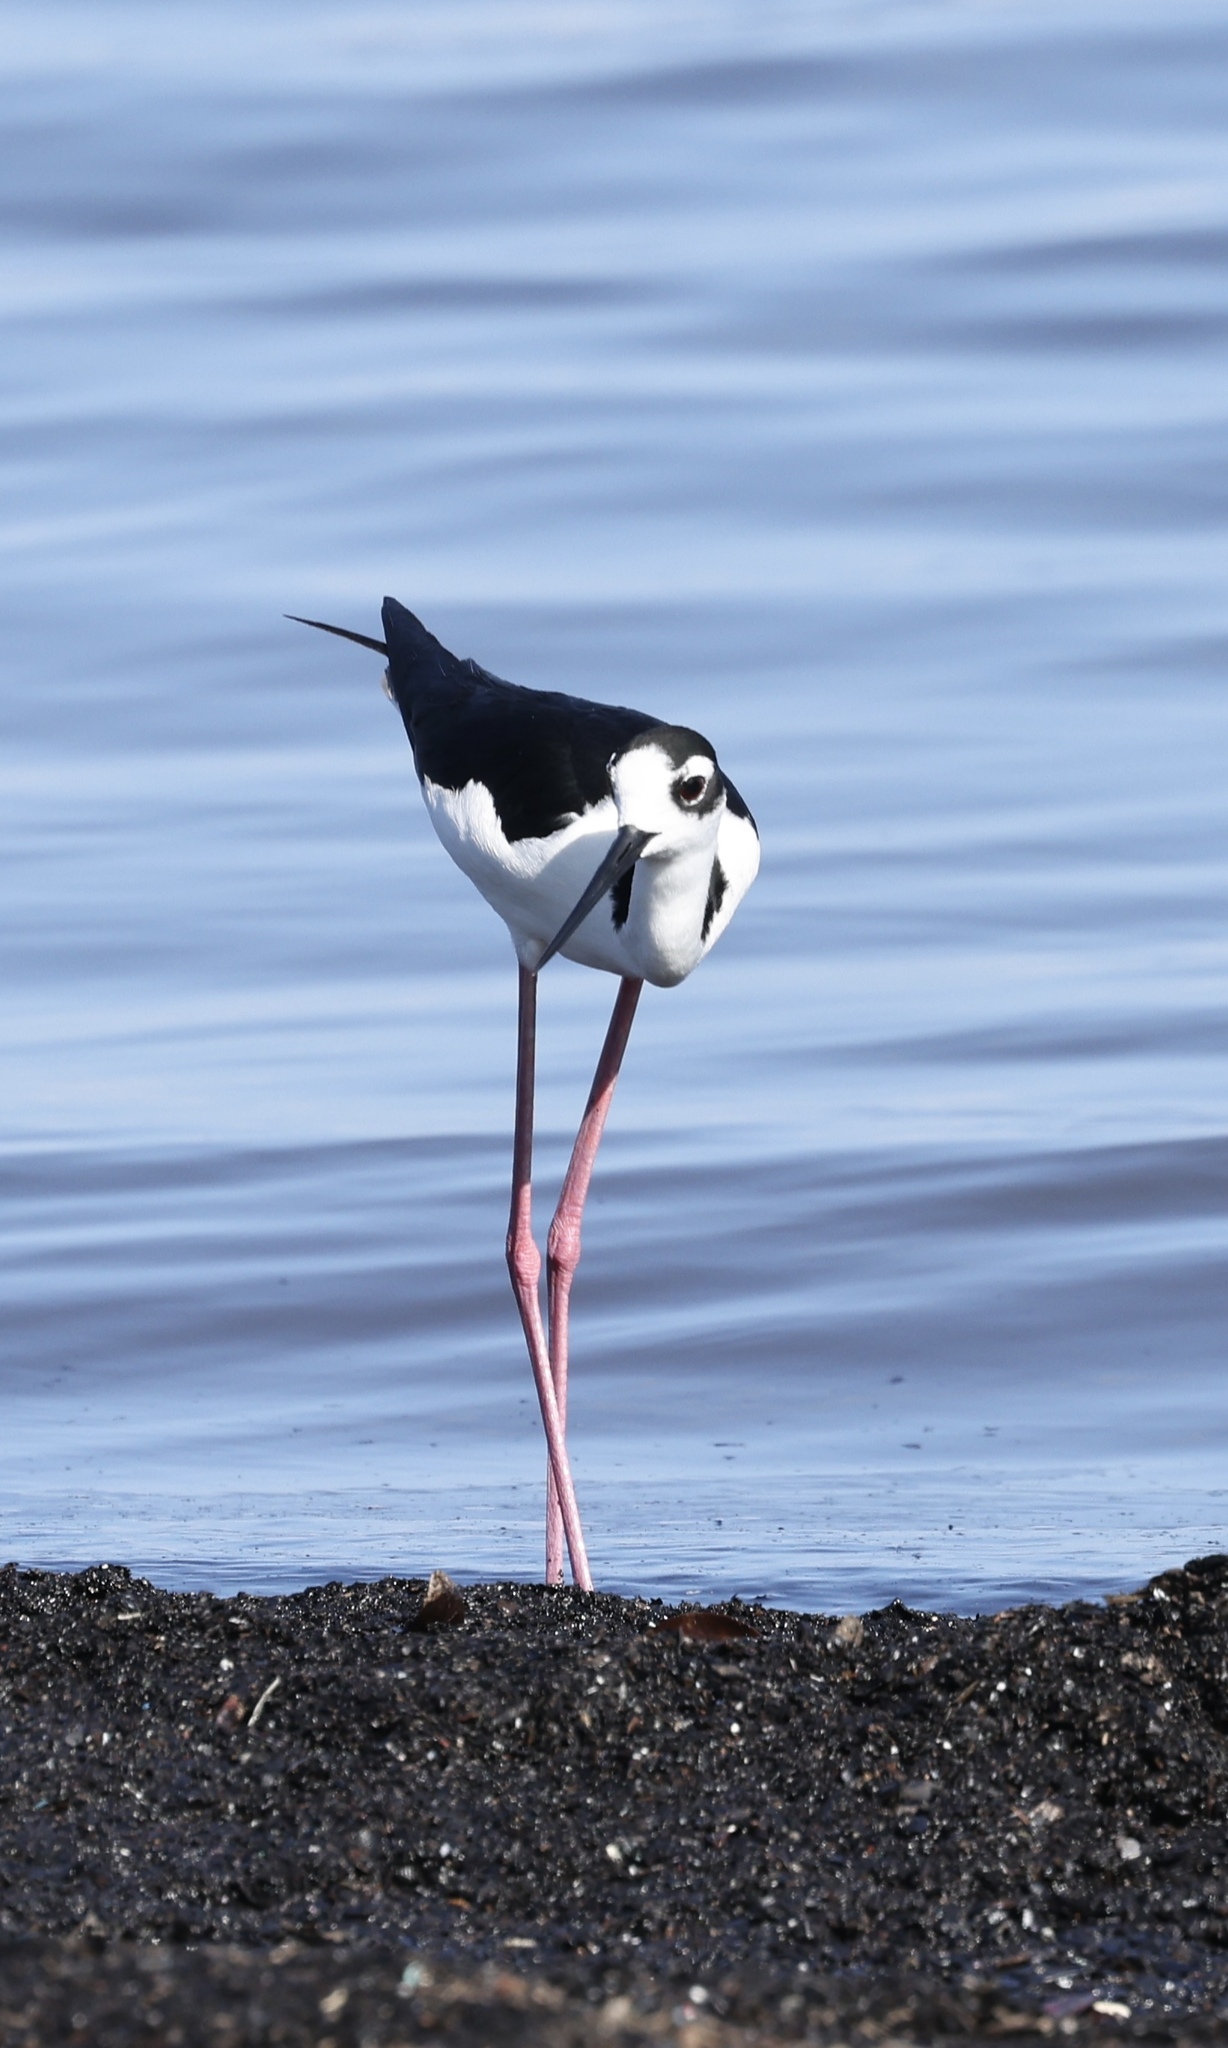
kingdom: Animalia
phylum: Chordata
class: Aves
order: Charadriiformes
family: Recurvirostridae
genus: Himantopus
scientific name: Himantopus mexicanus
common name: Black-necked stilt
